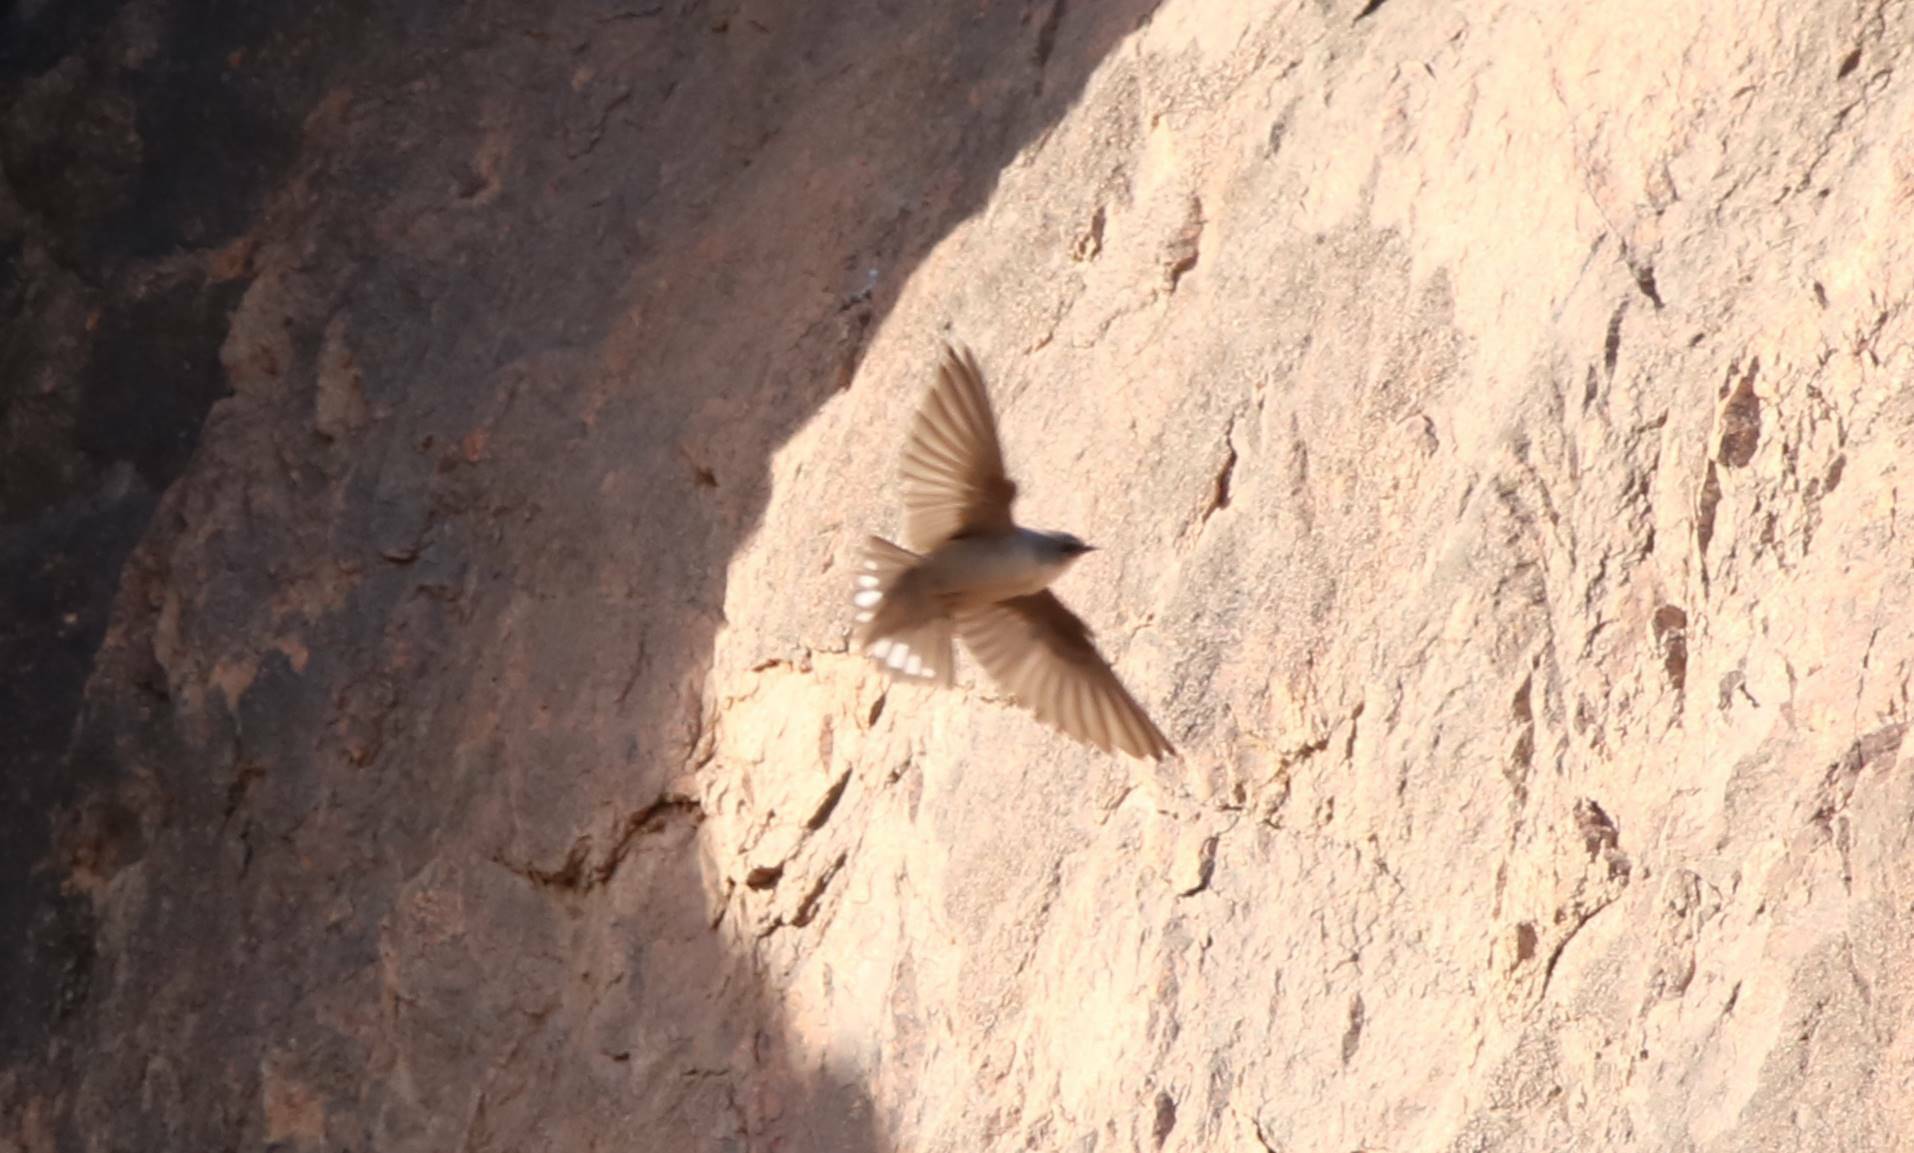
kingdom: Animalia
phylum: Chordata
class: Aves
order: Passeriformes
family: Hirundinidae
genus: Ptyonoprogne
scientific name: Ptyonoprogne fuligula
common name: Rock martin
